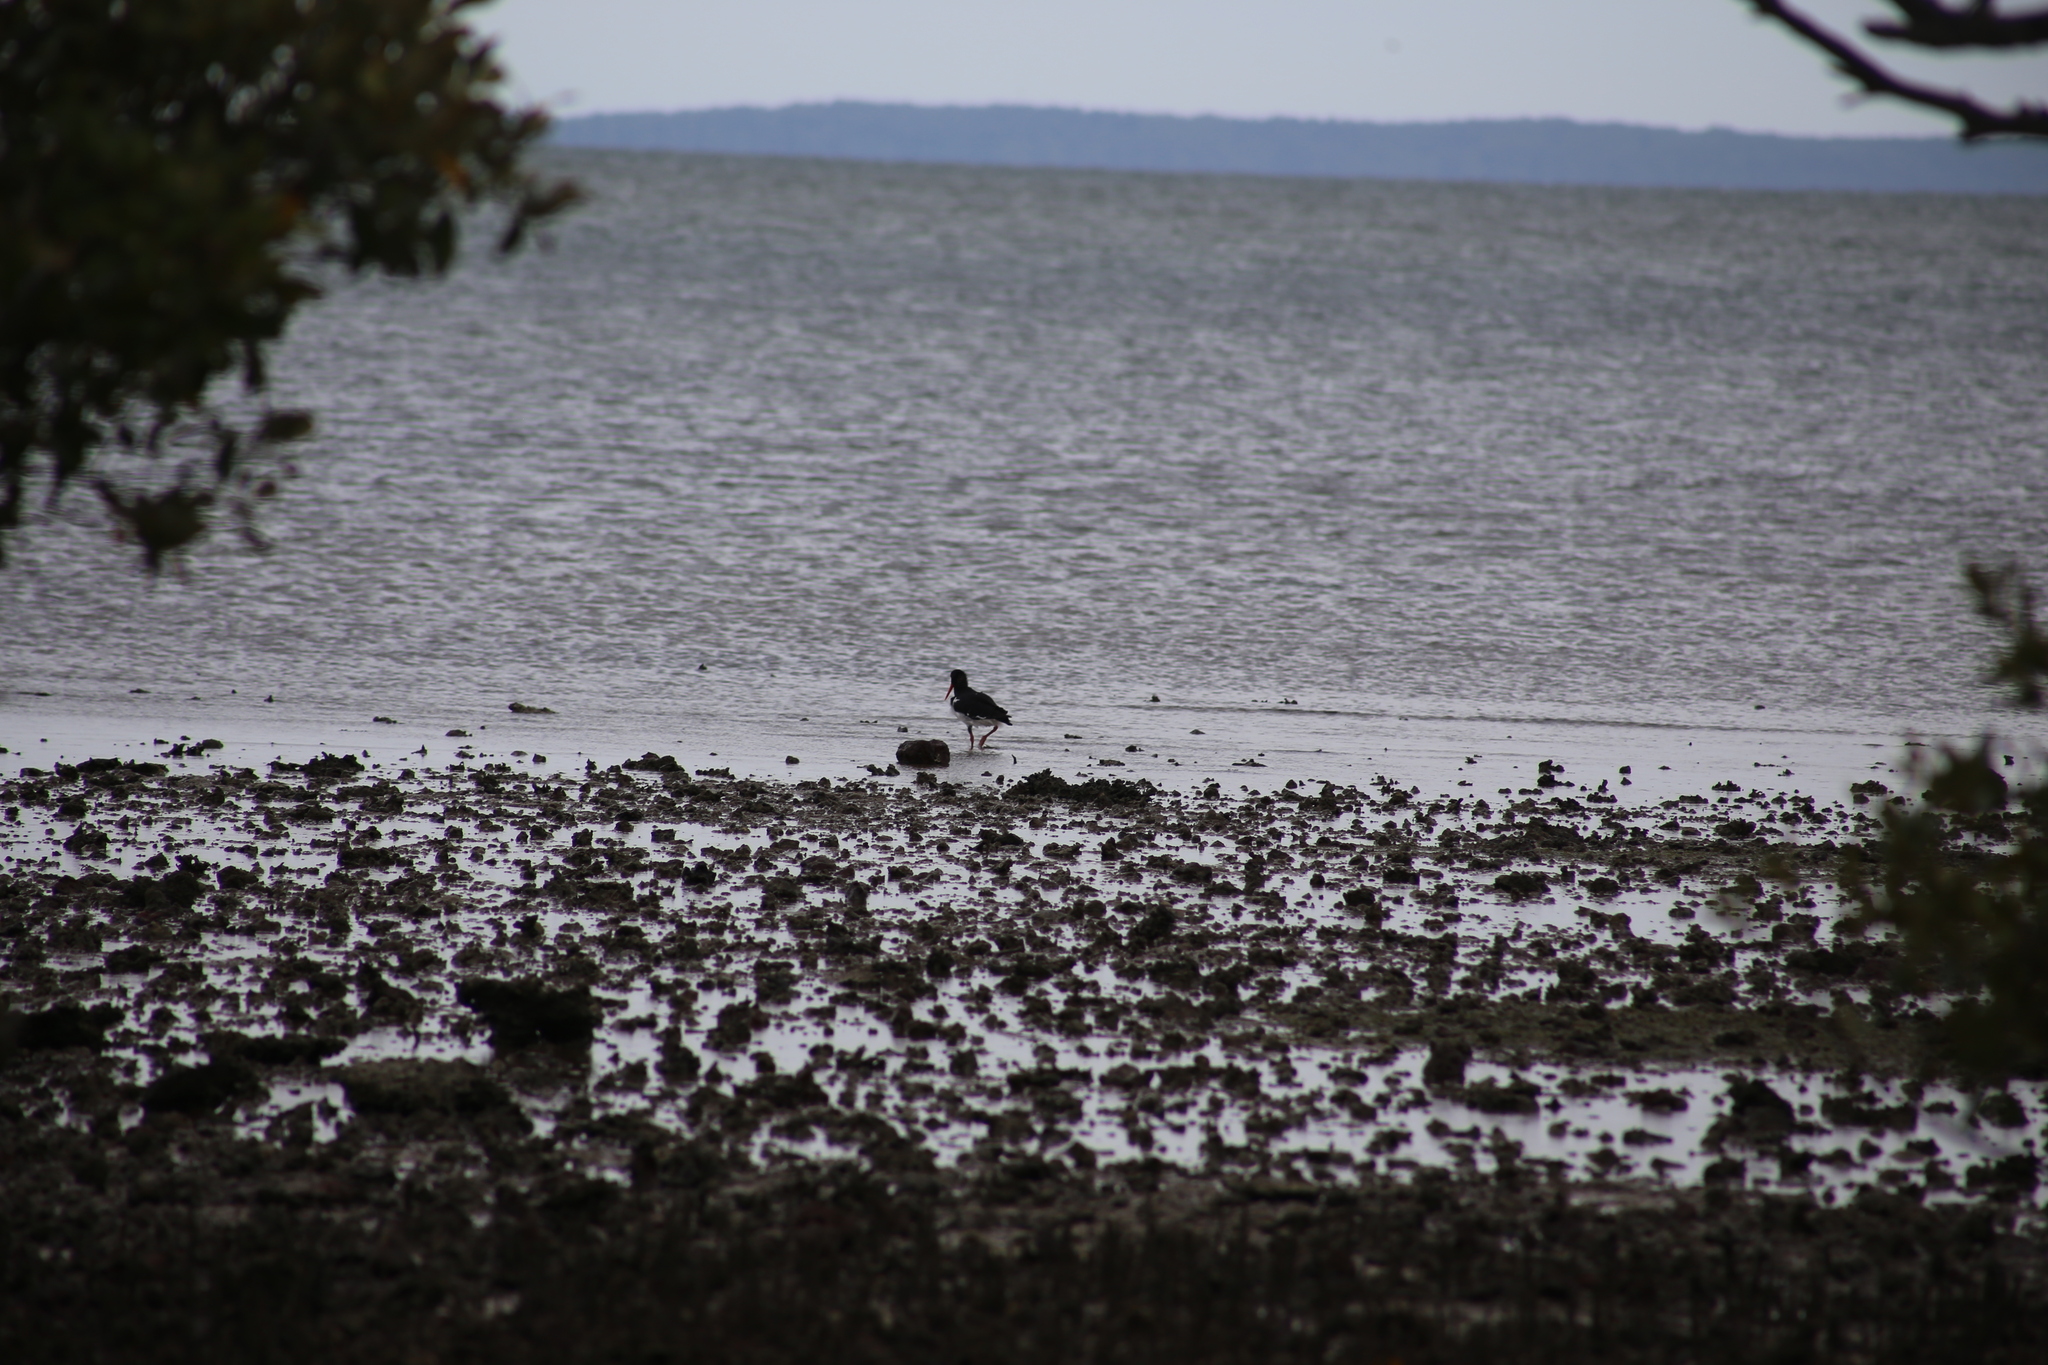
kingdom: Animalia
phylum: Chordata
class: Aves
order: Charadriiformes
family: Haematopodidae
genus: Haematopus
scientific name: Haematopus longirostris
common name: Pied oystercatcher
